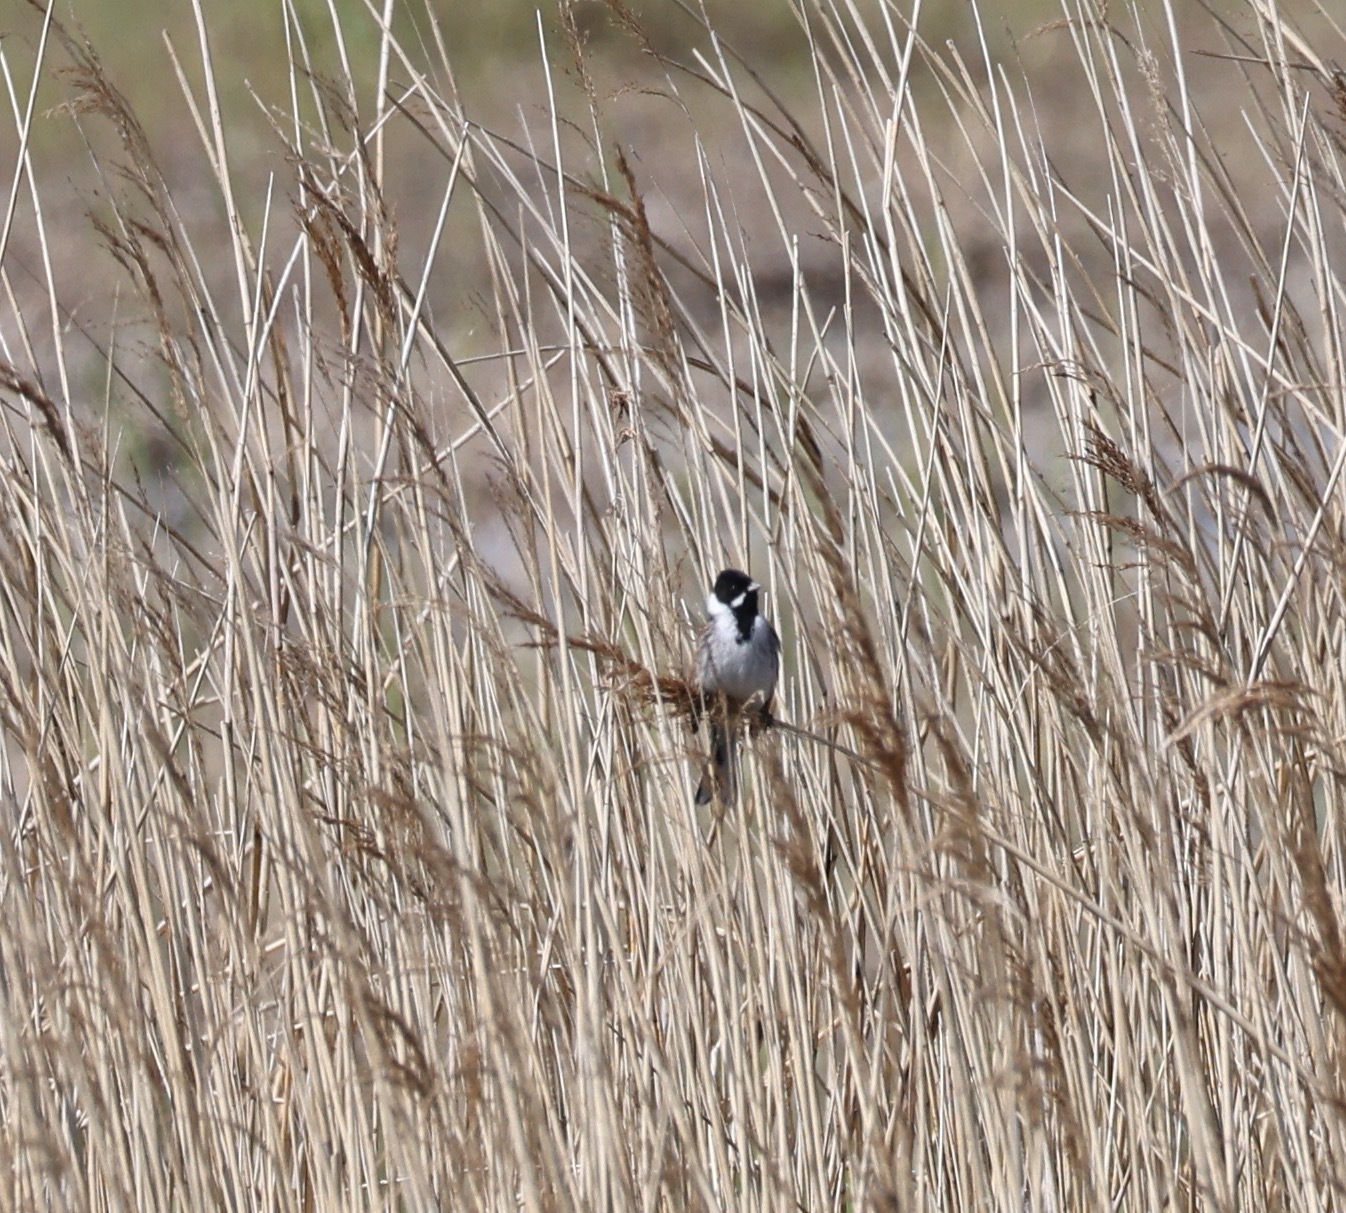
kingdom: Animalia
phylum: Chordata
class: Aves
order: Passeriformes
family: Emberizidae
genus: Emberiza
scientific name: Emberiza schoeniclus
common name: Reed bunting
